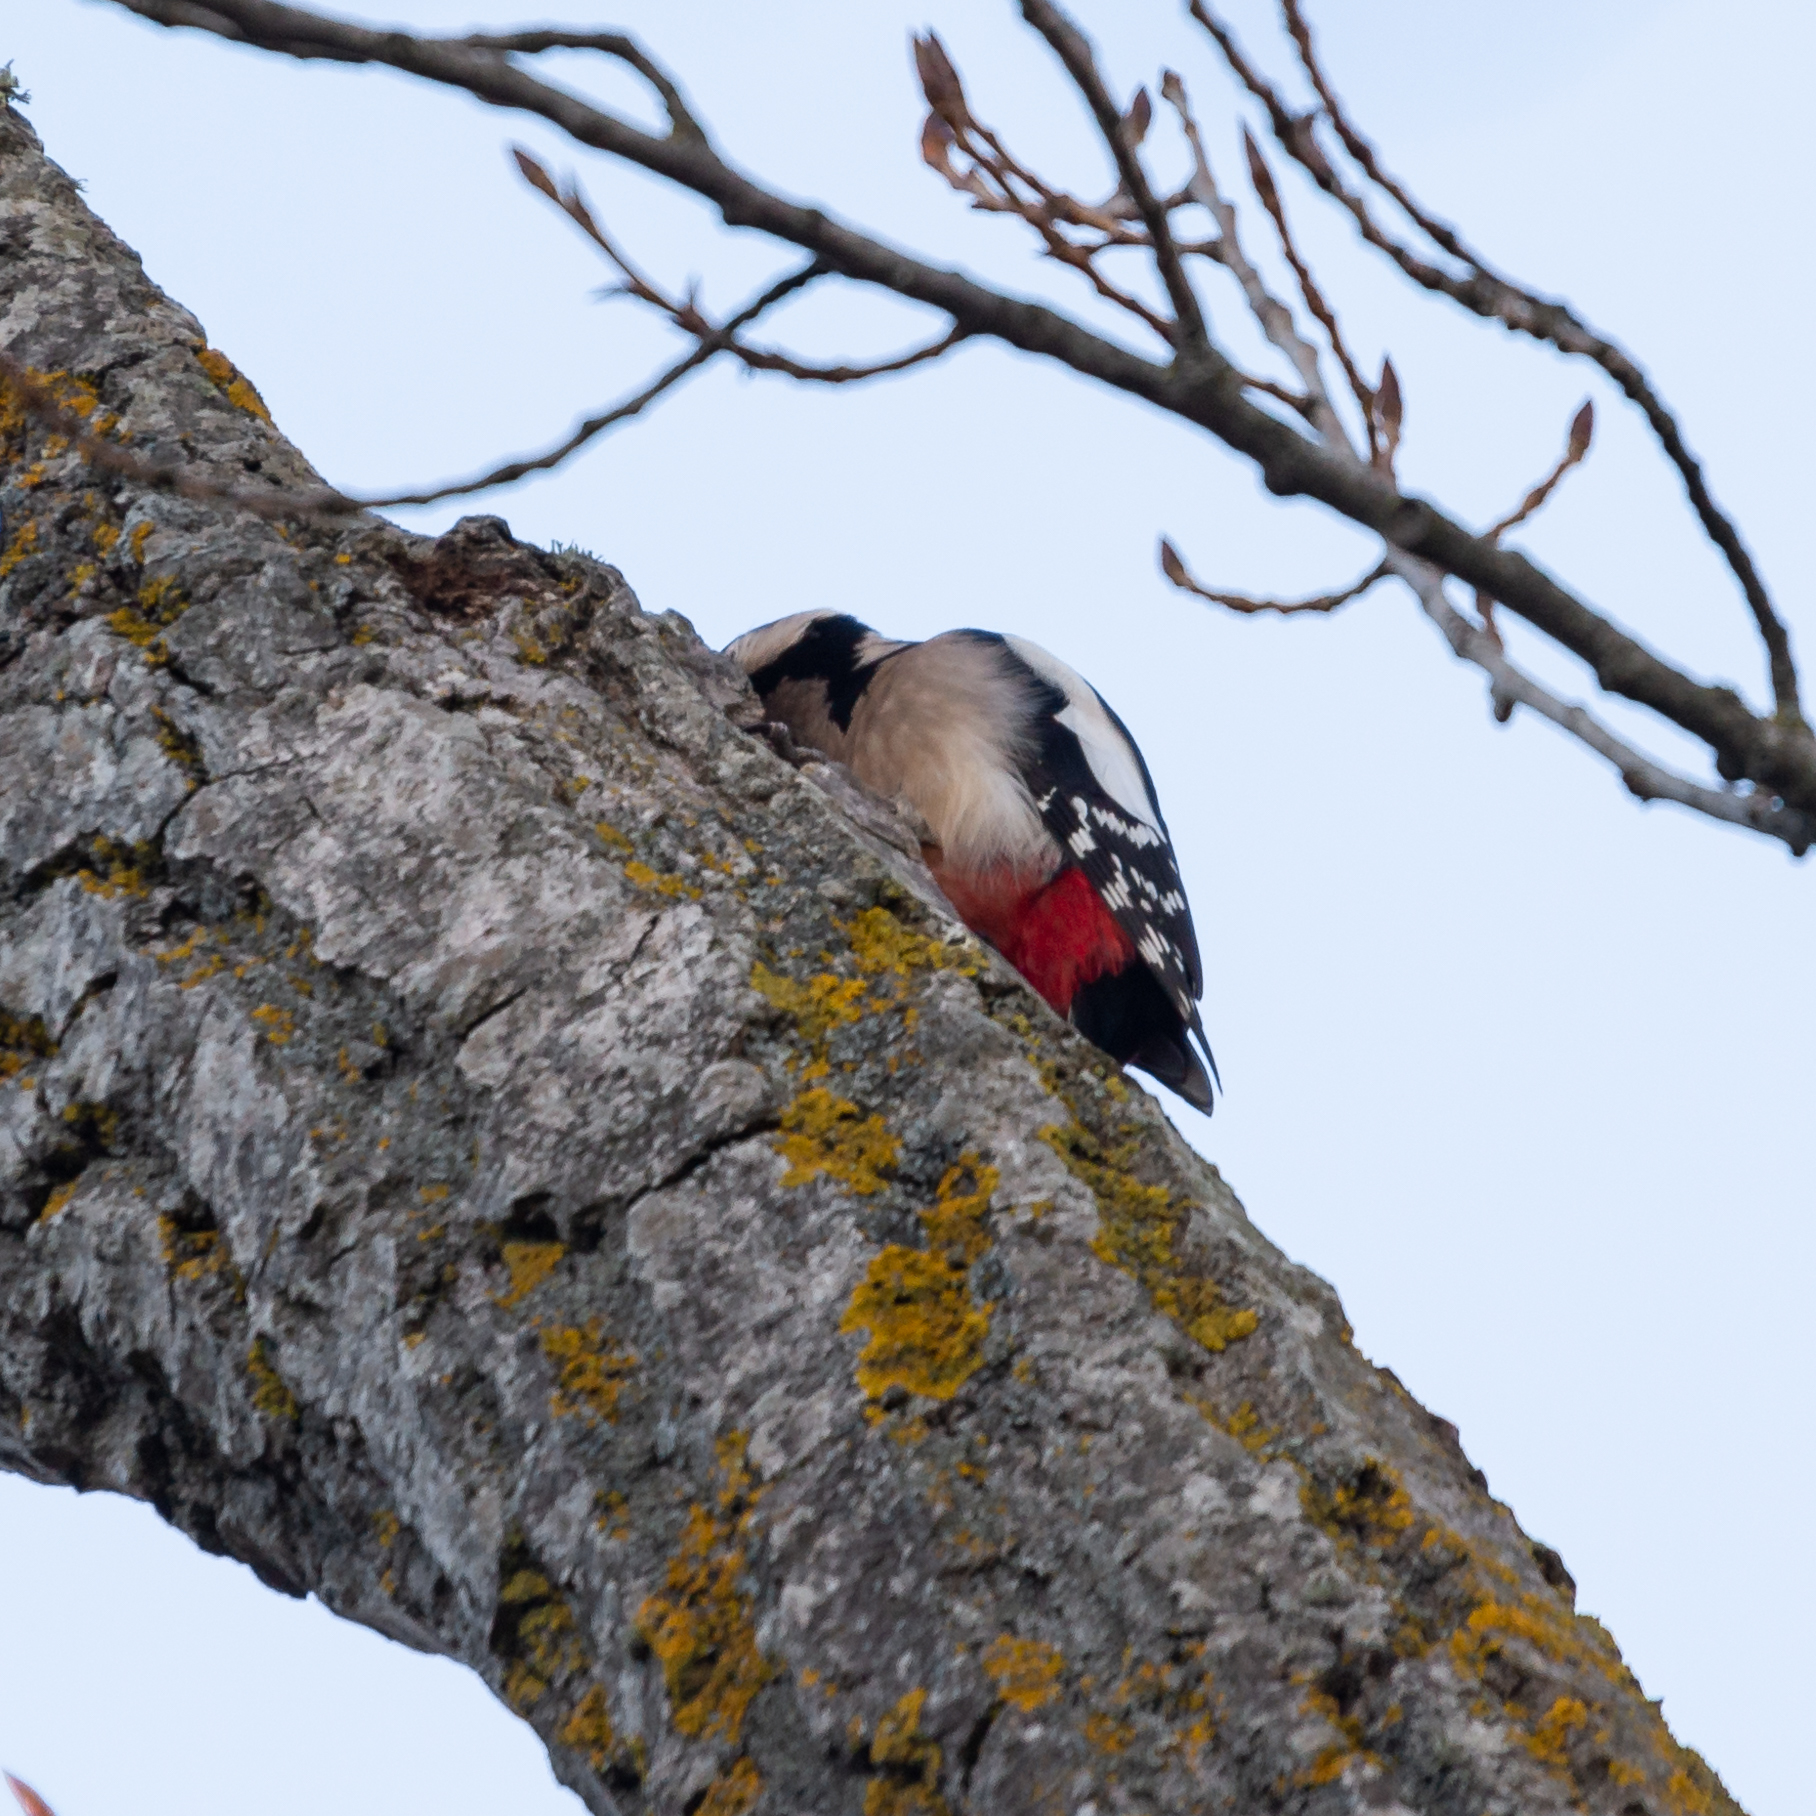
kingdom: Animalia
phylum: Chordata
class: Aves
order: Piciformes
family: Picidae
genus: Dendrocopos
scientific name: Dendrocopos major
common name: Great spotted woodpecker
